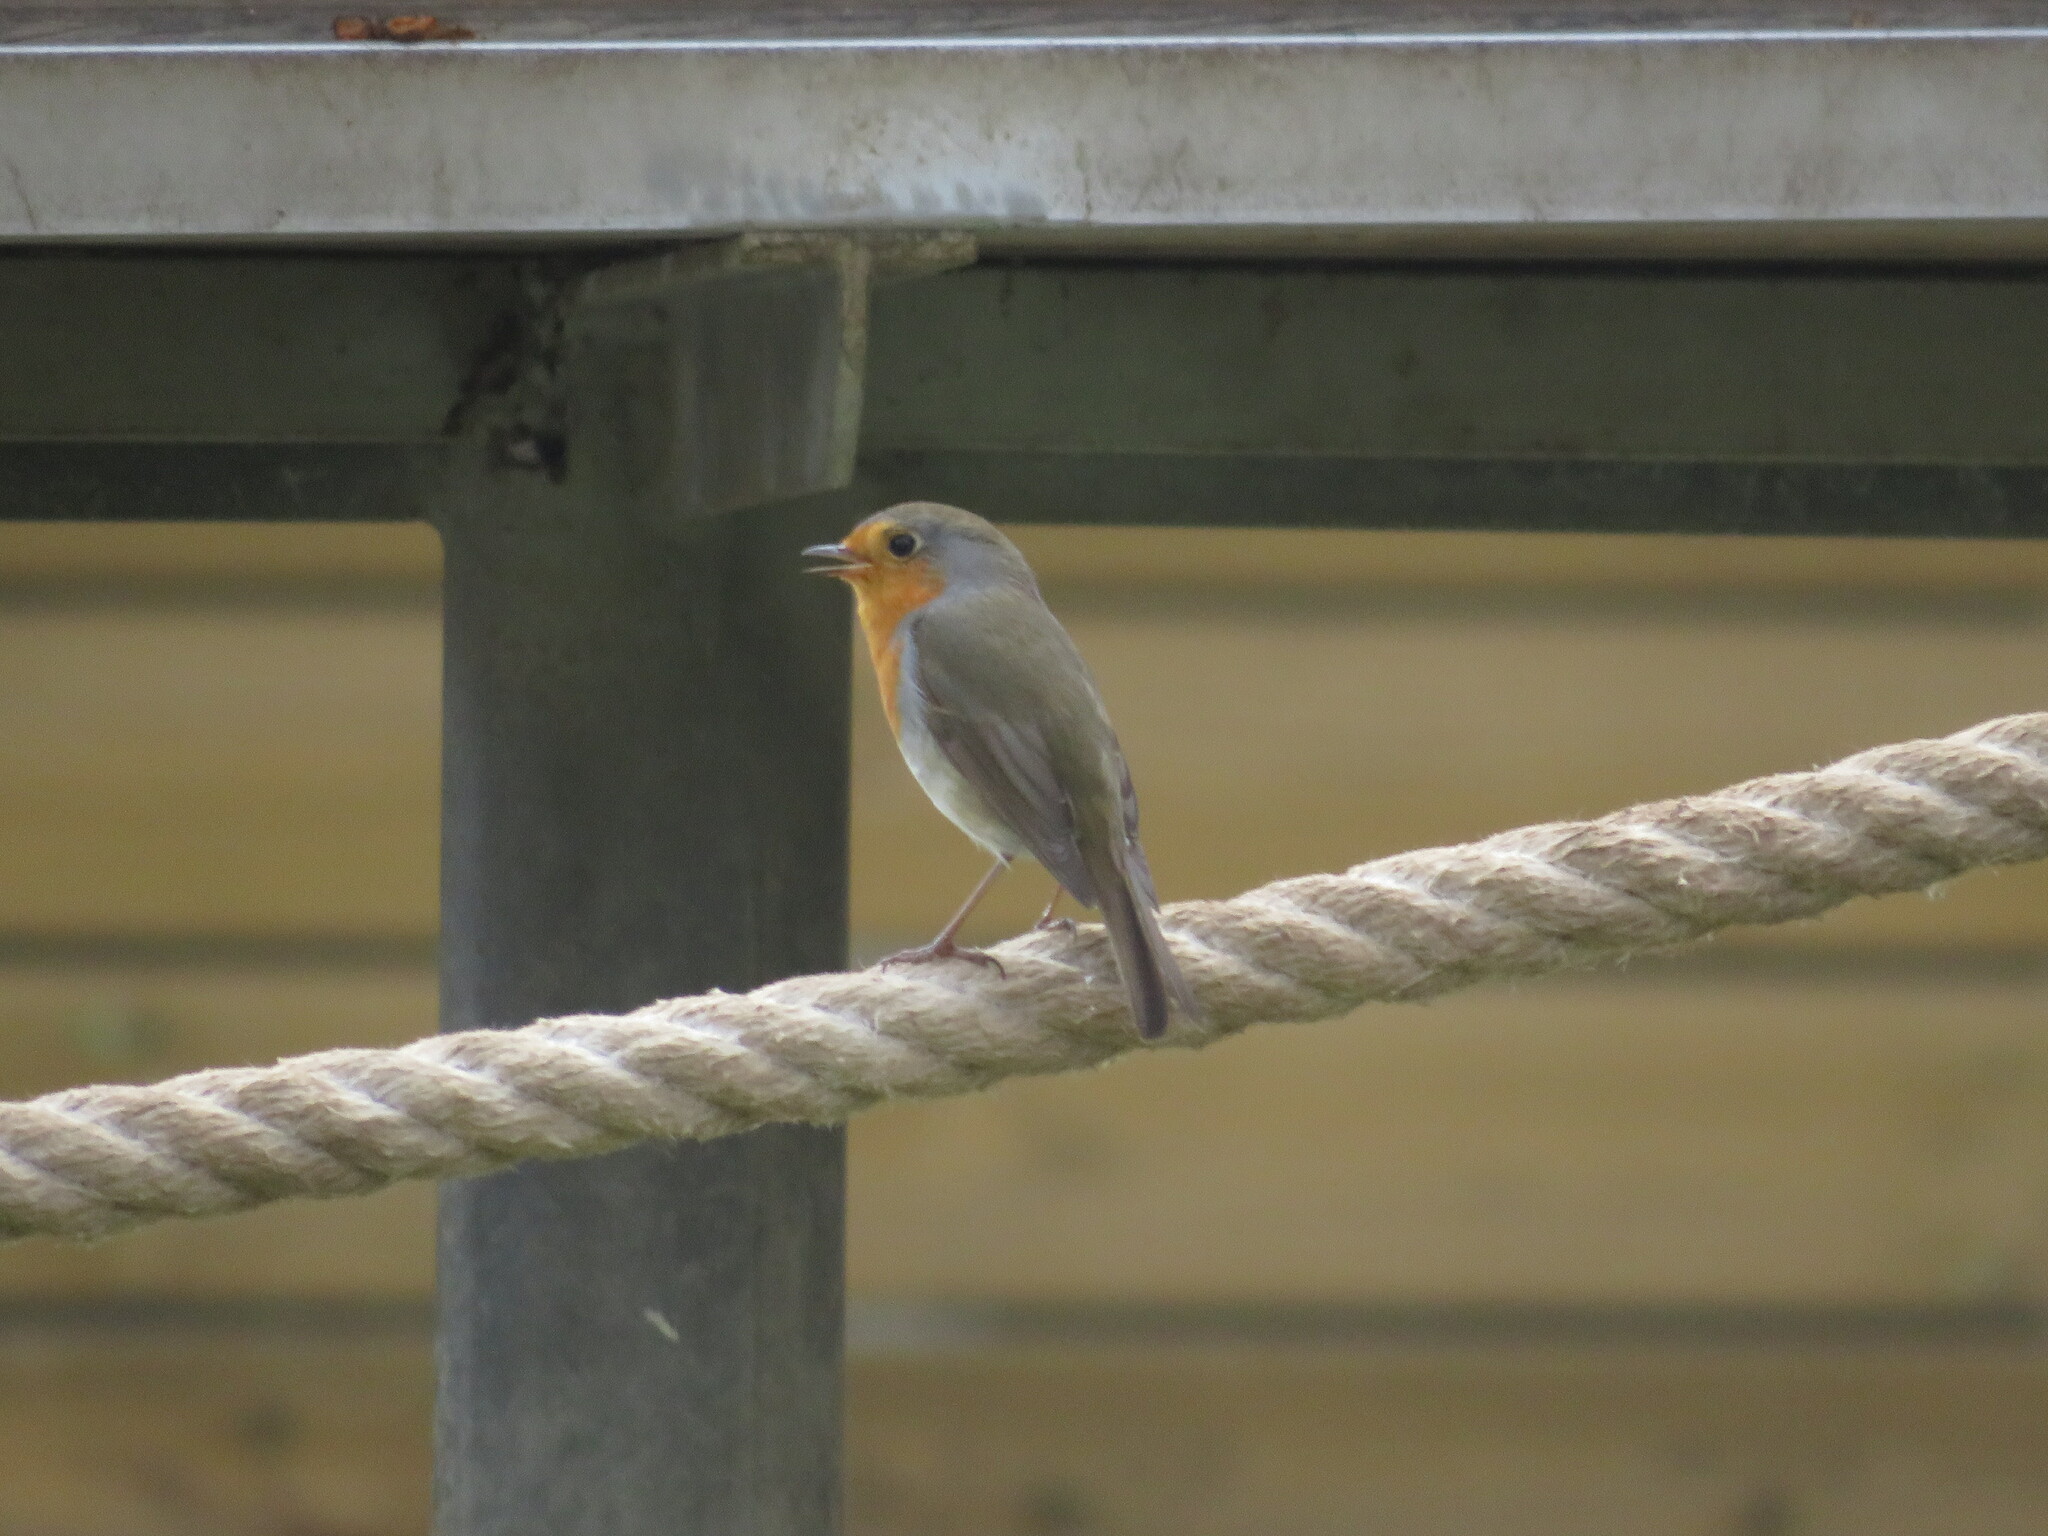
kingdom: Animalia
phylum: Chordata
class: Aves
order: Passeriformes
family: Muscicapidae
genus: Erithacus
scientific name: Erithacus rubecula
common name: European robin
